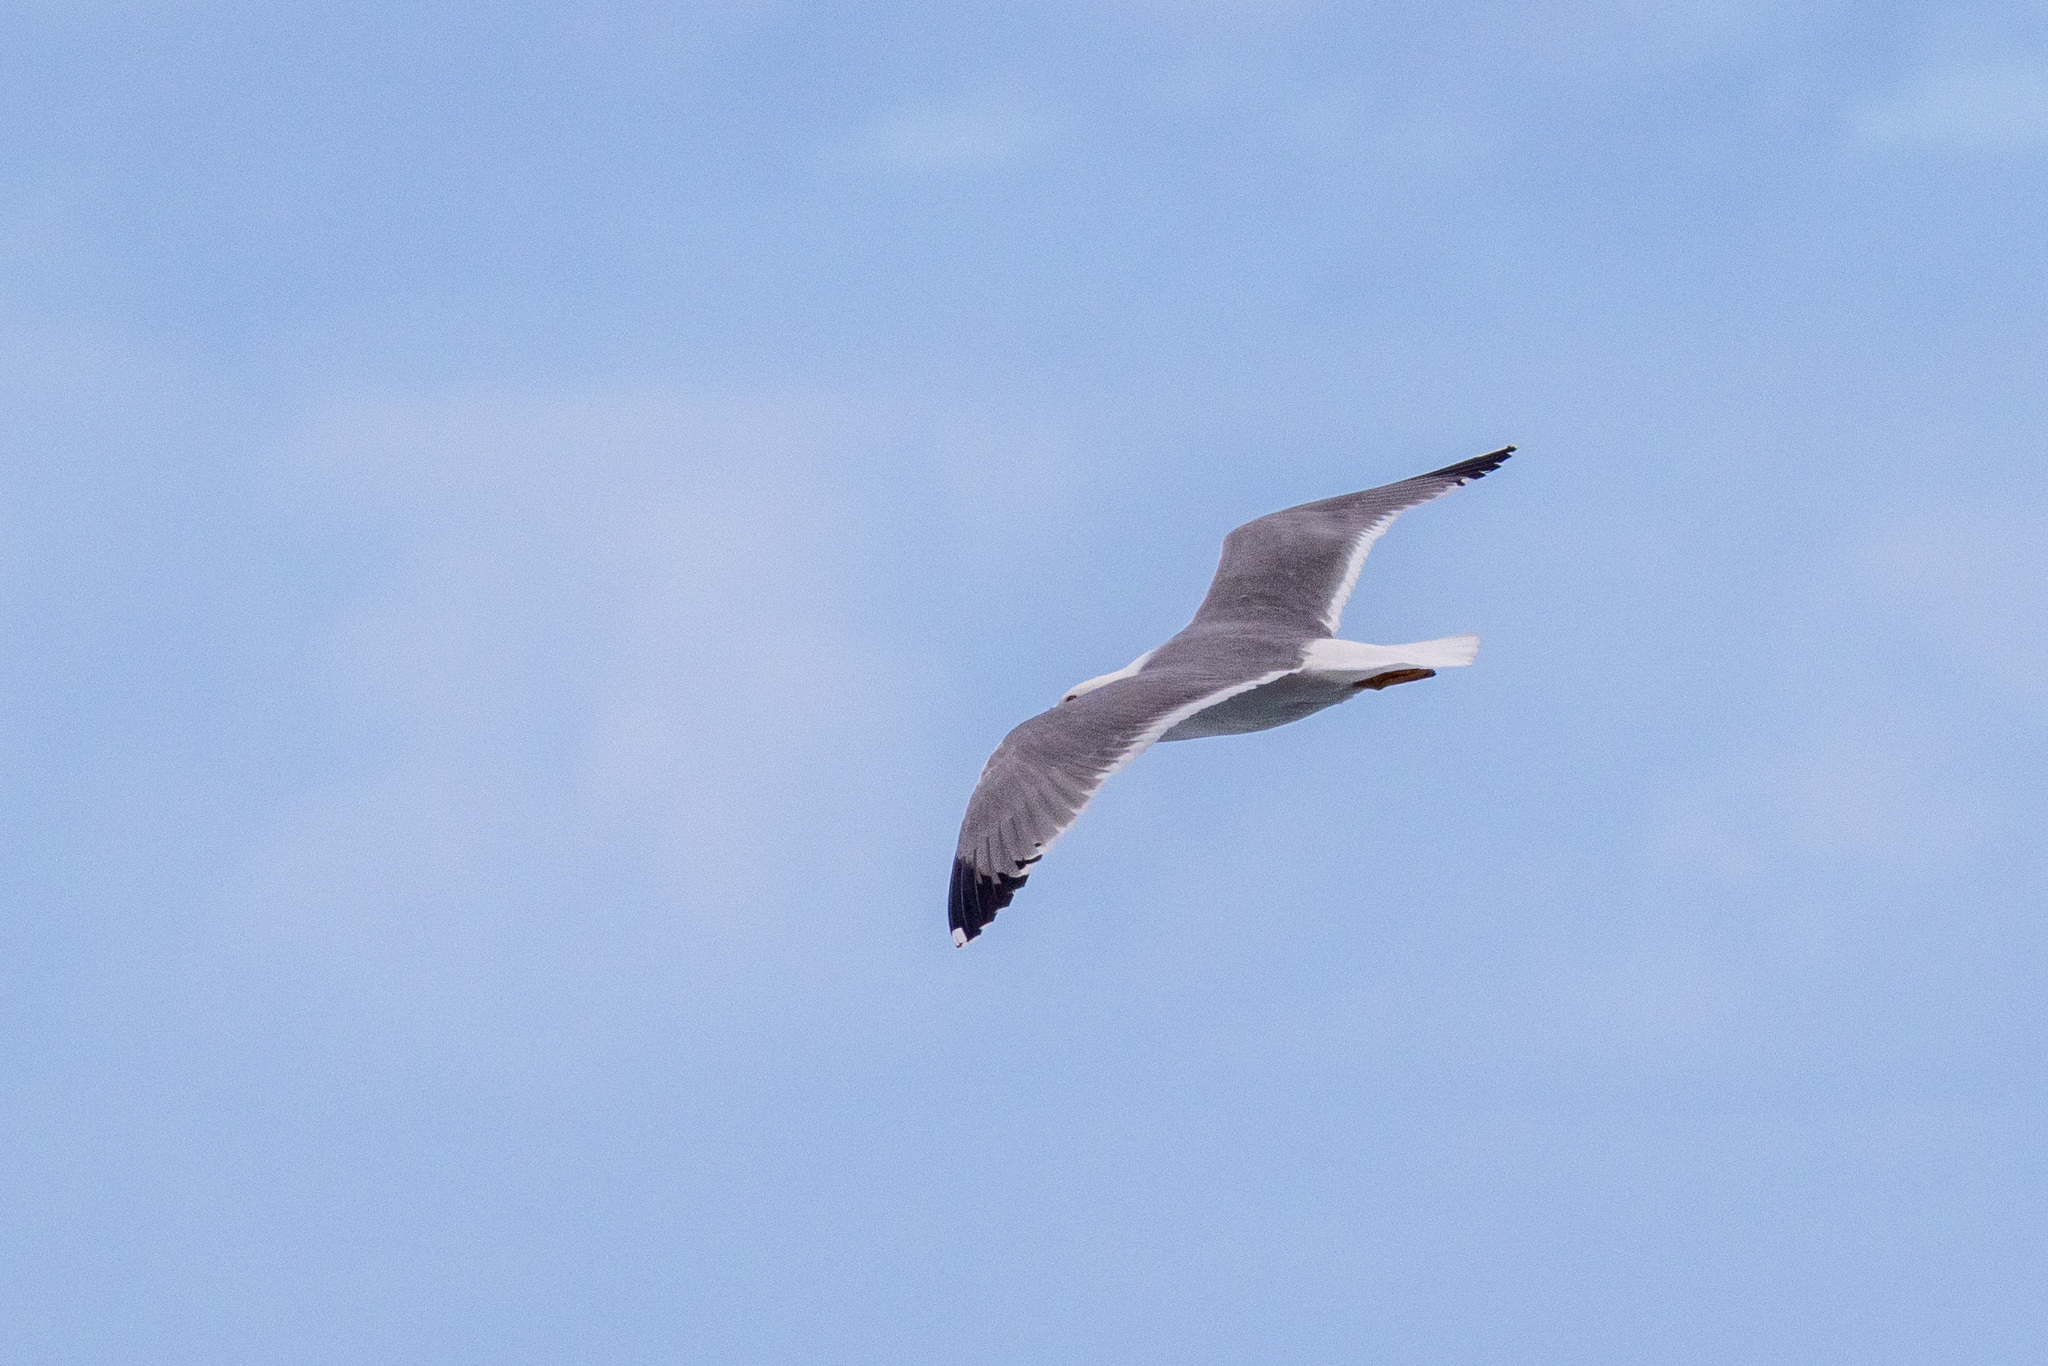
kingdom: Animalia
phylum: Chordata
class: Aves
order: Charadriiformes
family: Laridae
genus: Larus
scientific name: Larus michahellis
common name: Yellow-legged gull
